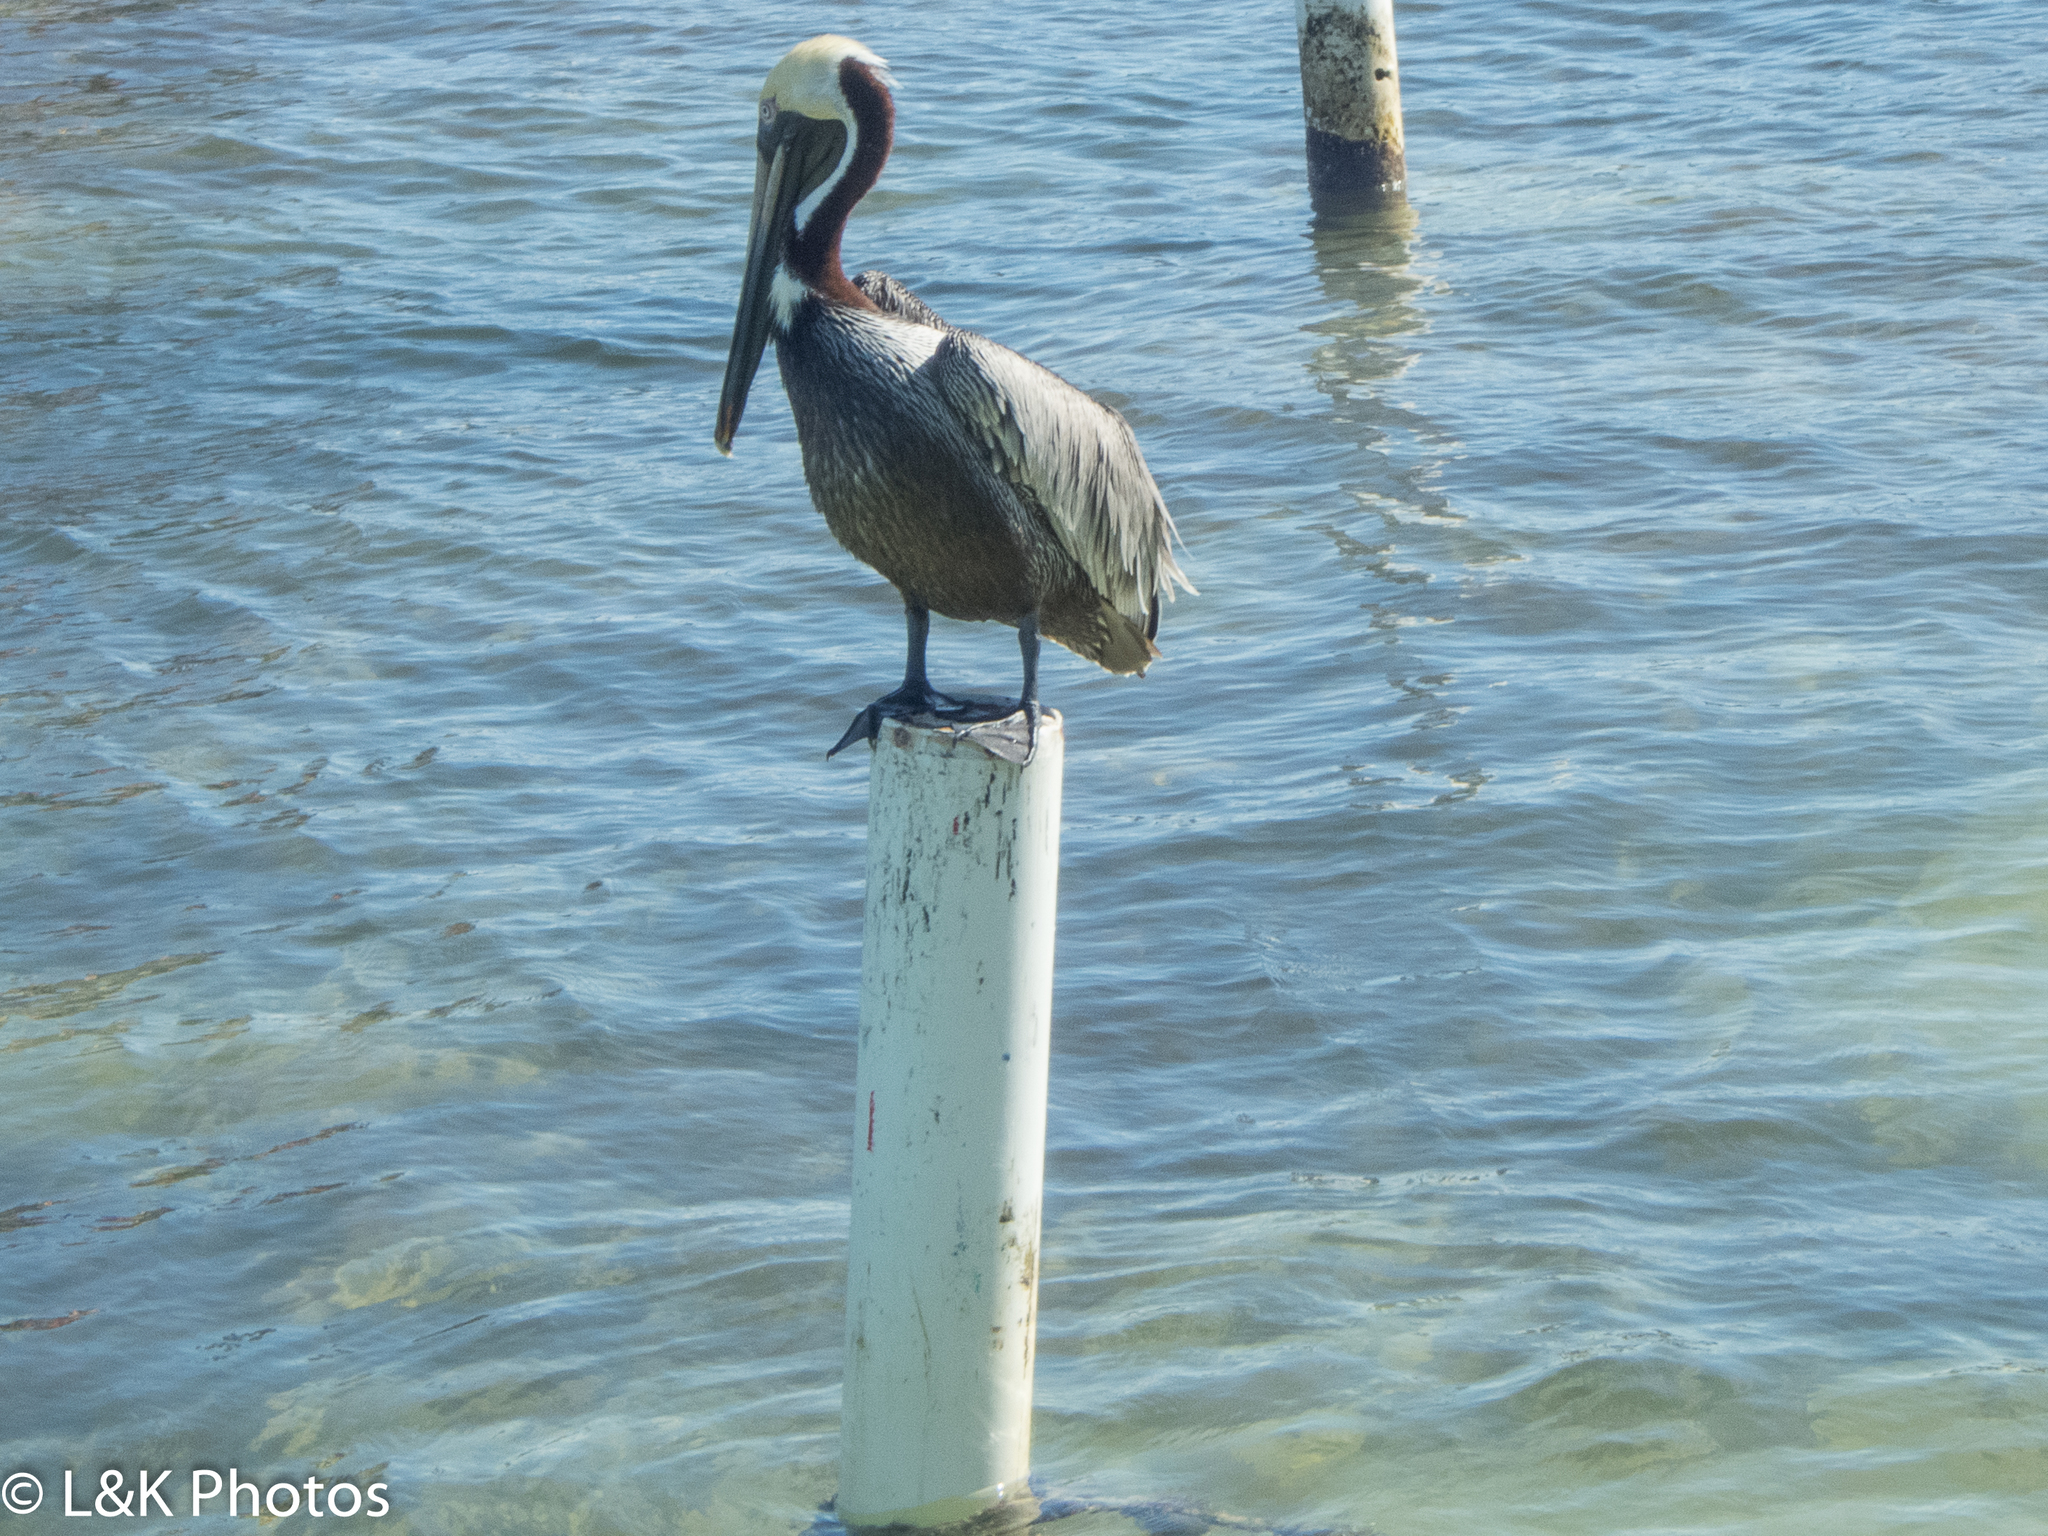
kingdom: Animalia
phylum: Chordata
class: Aves
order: Pelecaniformes
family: Pelecanidae
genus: Pelecanus
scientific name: Pelecanus occidentalis
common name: Brown pelican
